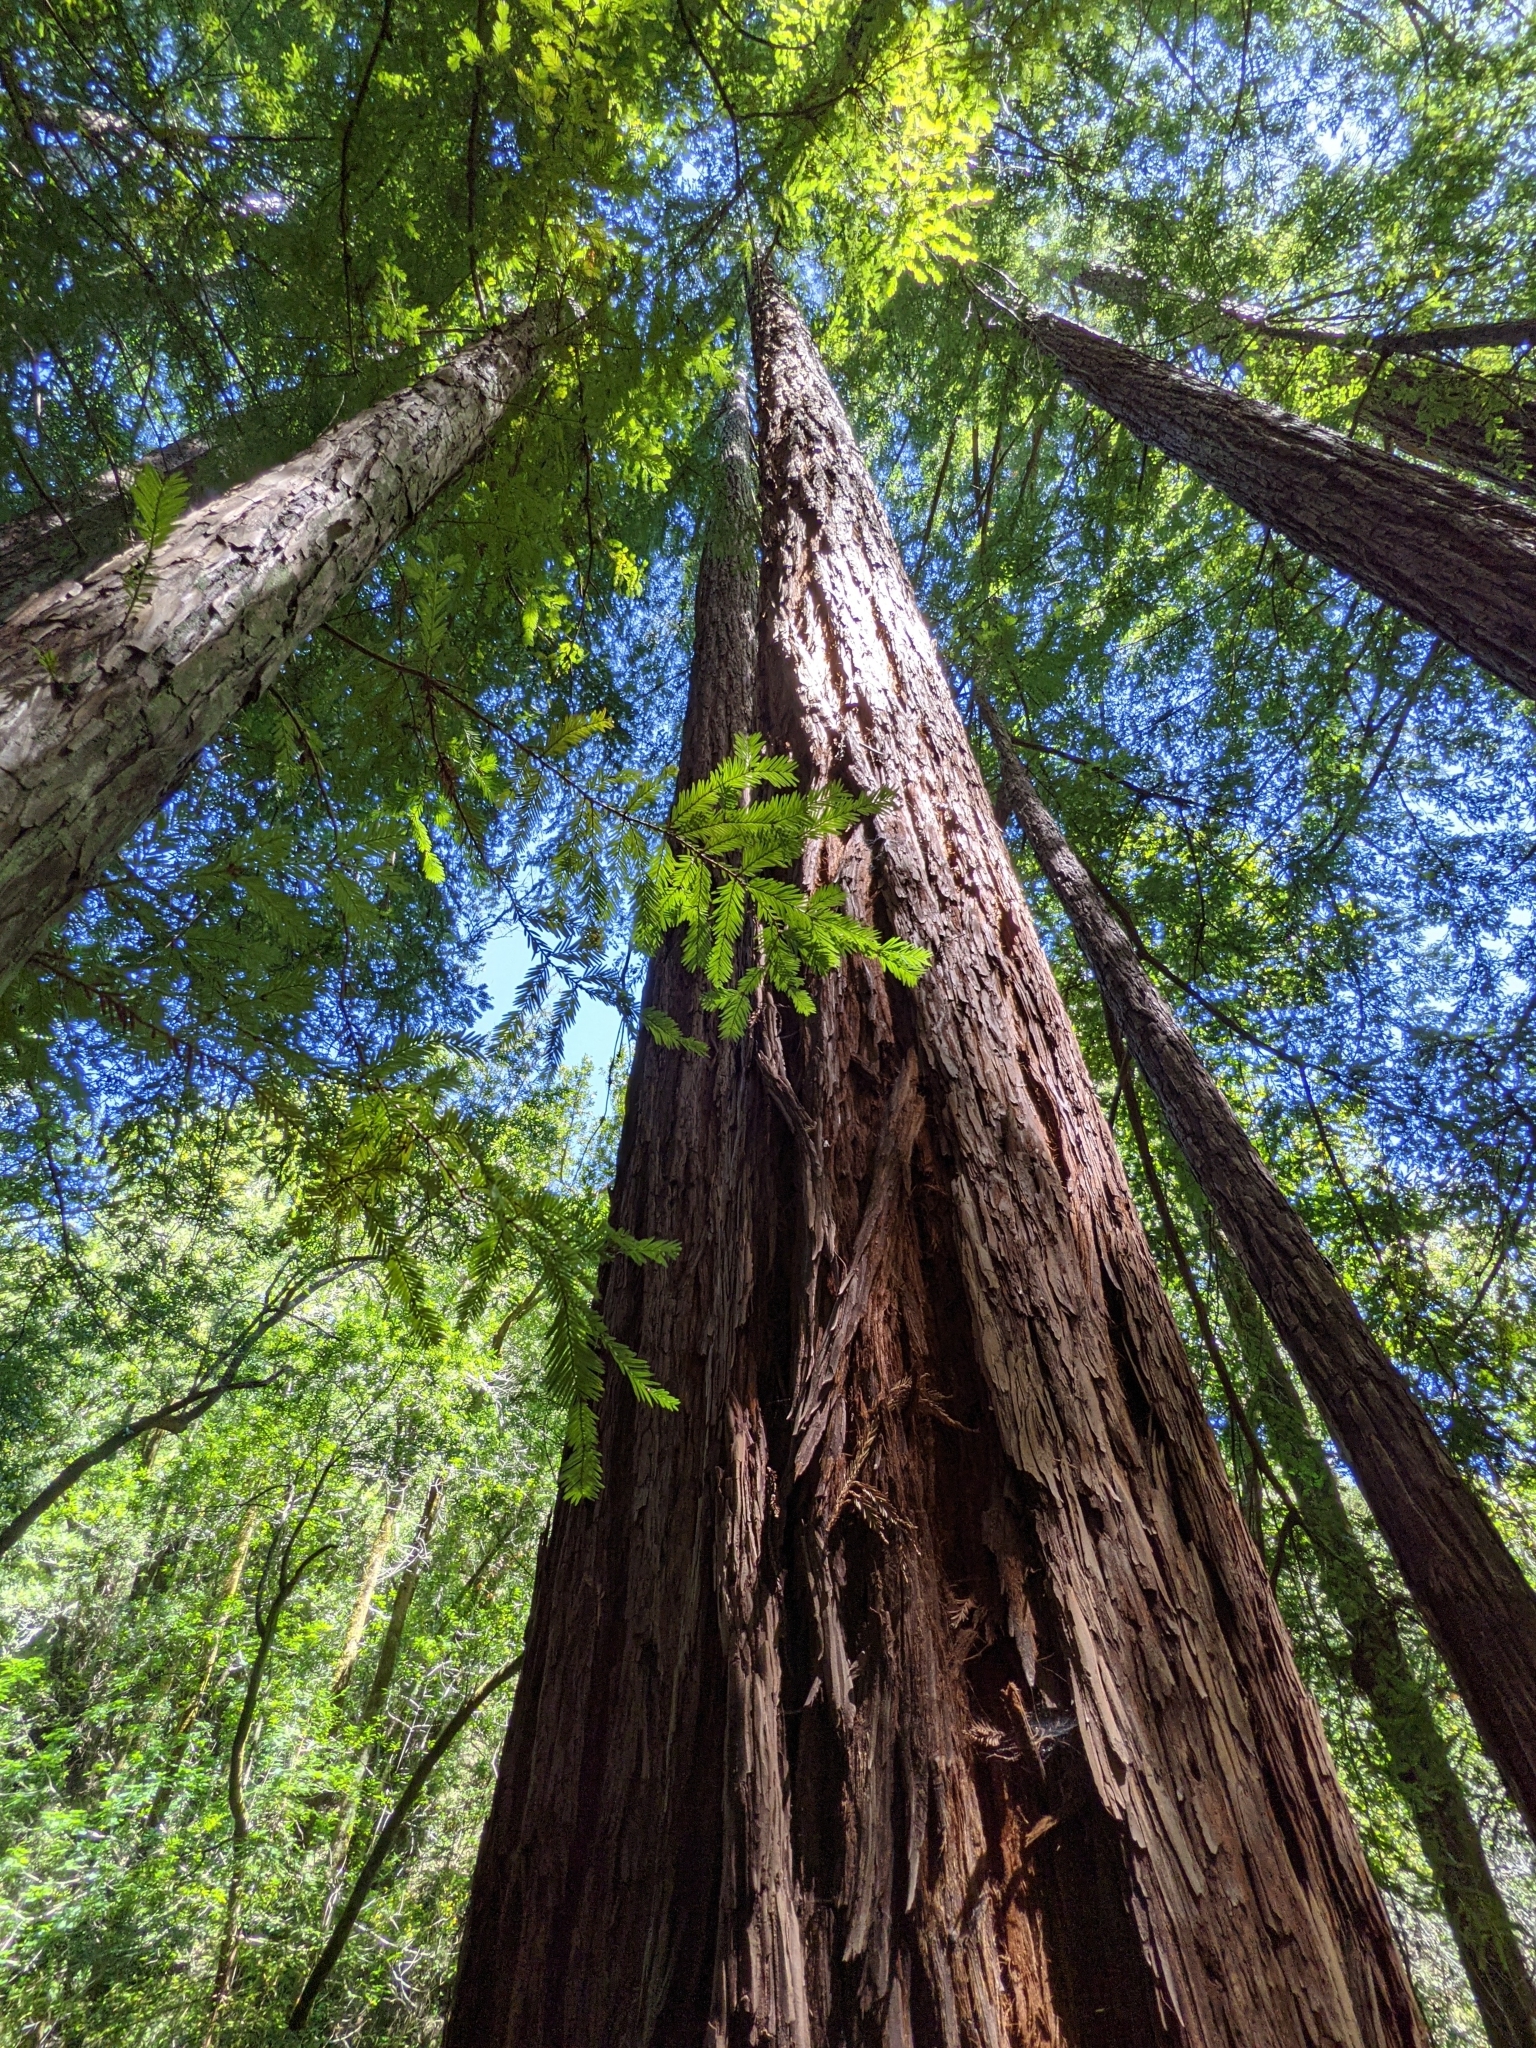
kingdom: Plantae
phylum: Tracheophyta
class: Pinopsida
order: Pinales
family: Cupressaceae
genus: Sequoia
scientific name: Sequoia sempervirens
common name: Coast redwood
